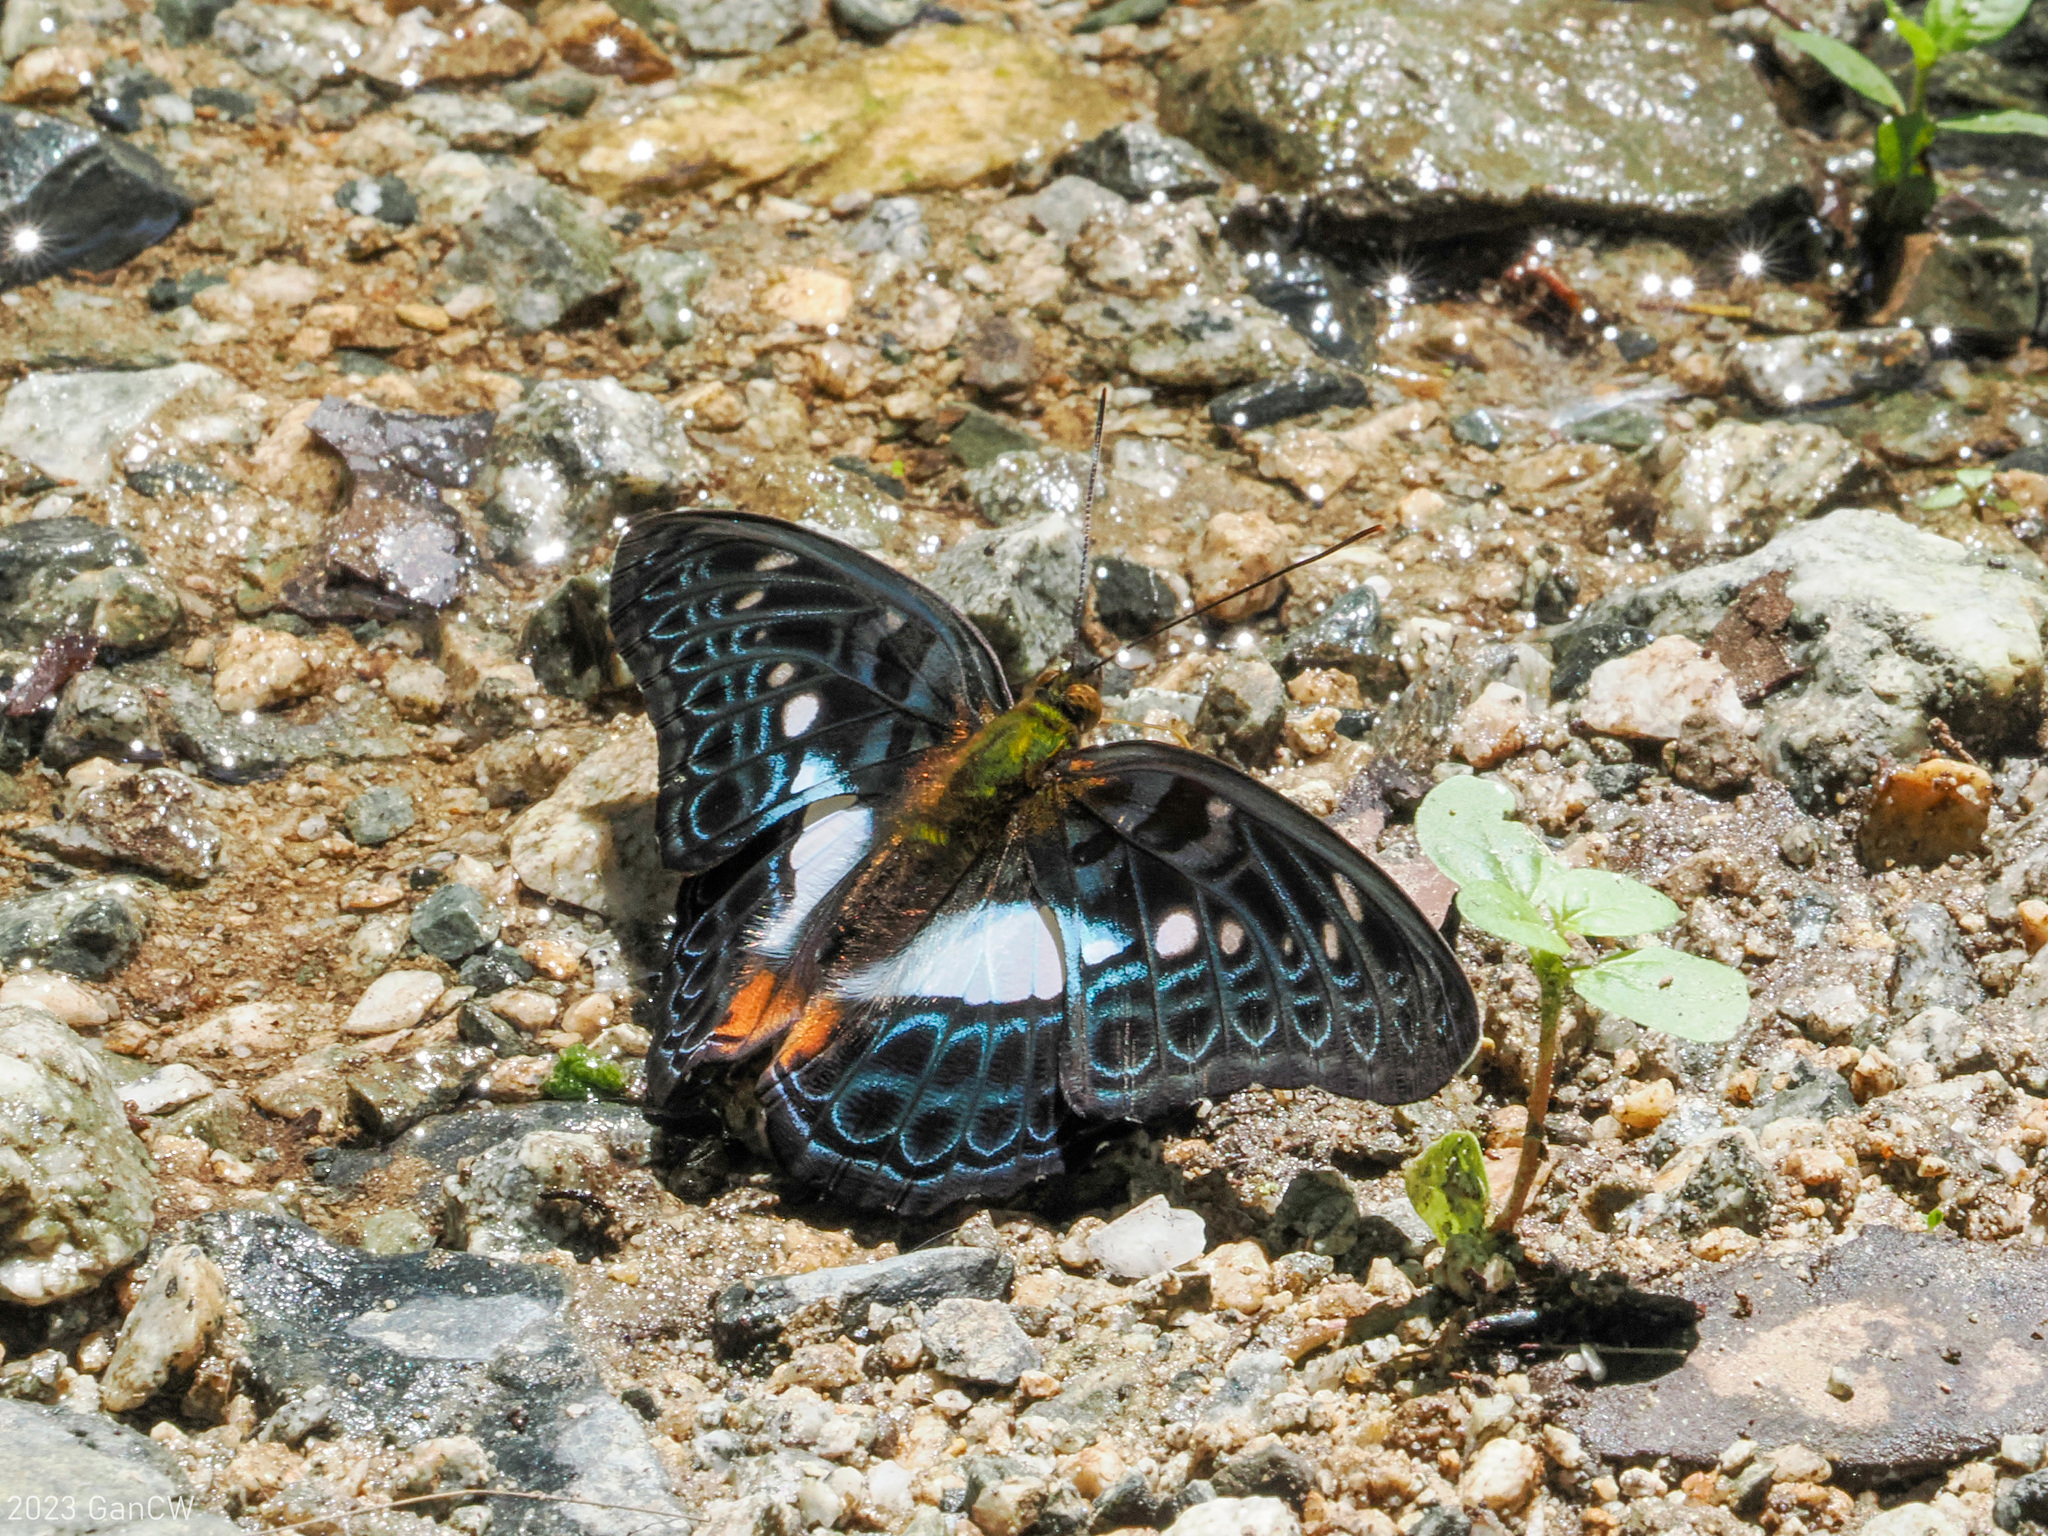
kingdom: Animalia
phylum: Arthropoda
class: Insecta
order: Lepidoptera
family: Nymphalidae
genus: Limenitis
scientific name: Limenitis
